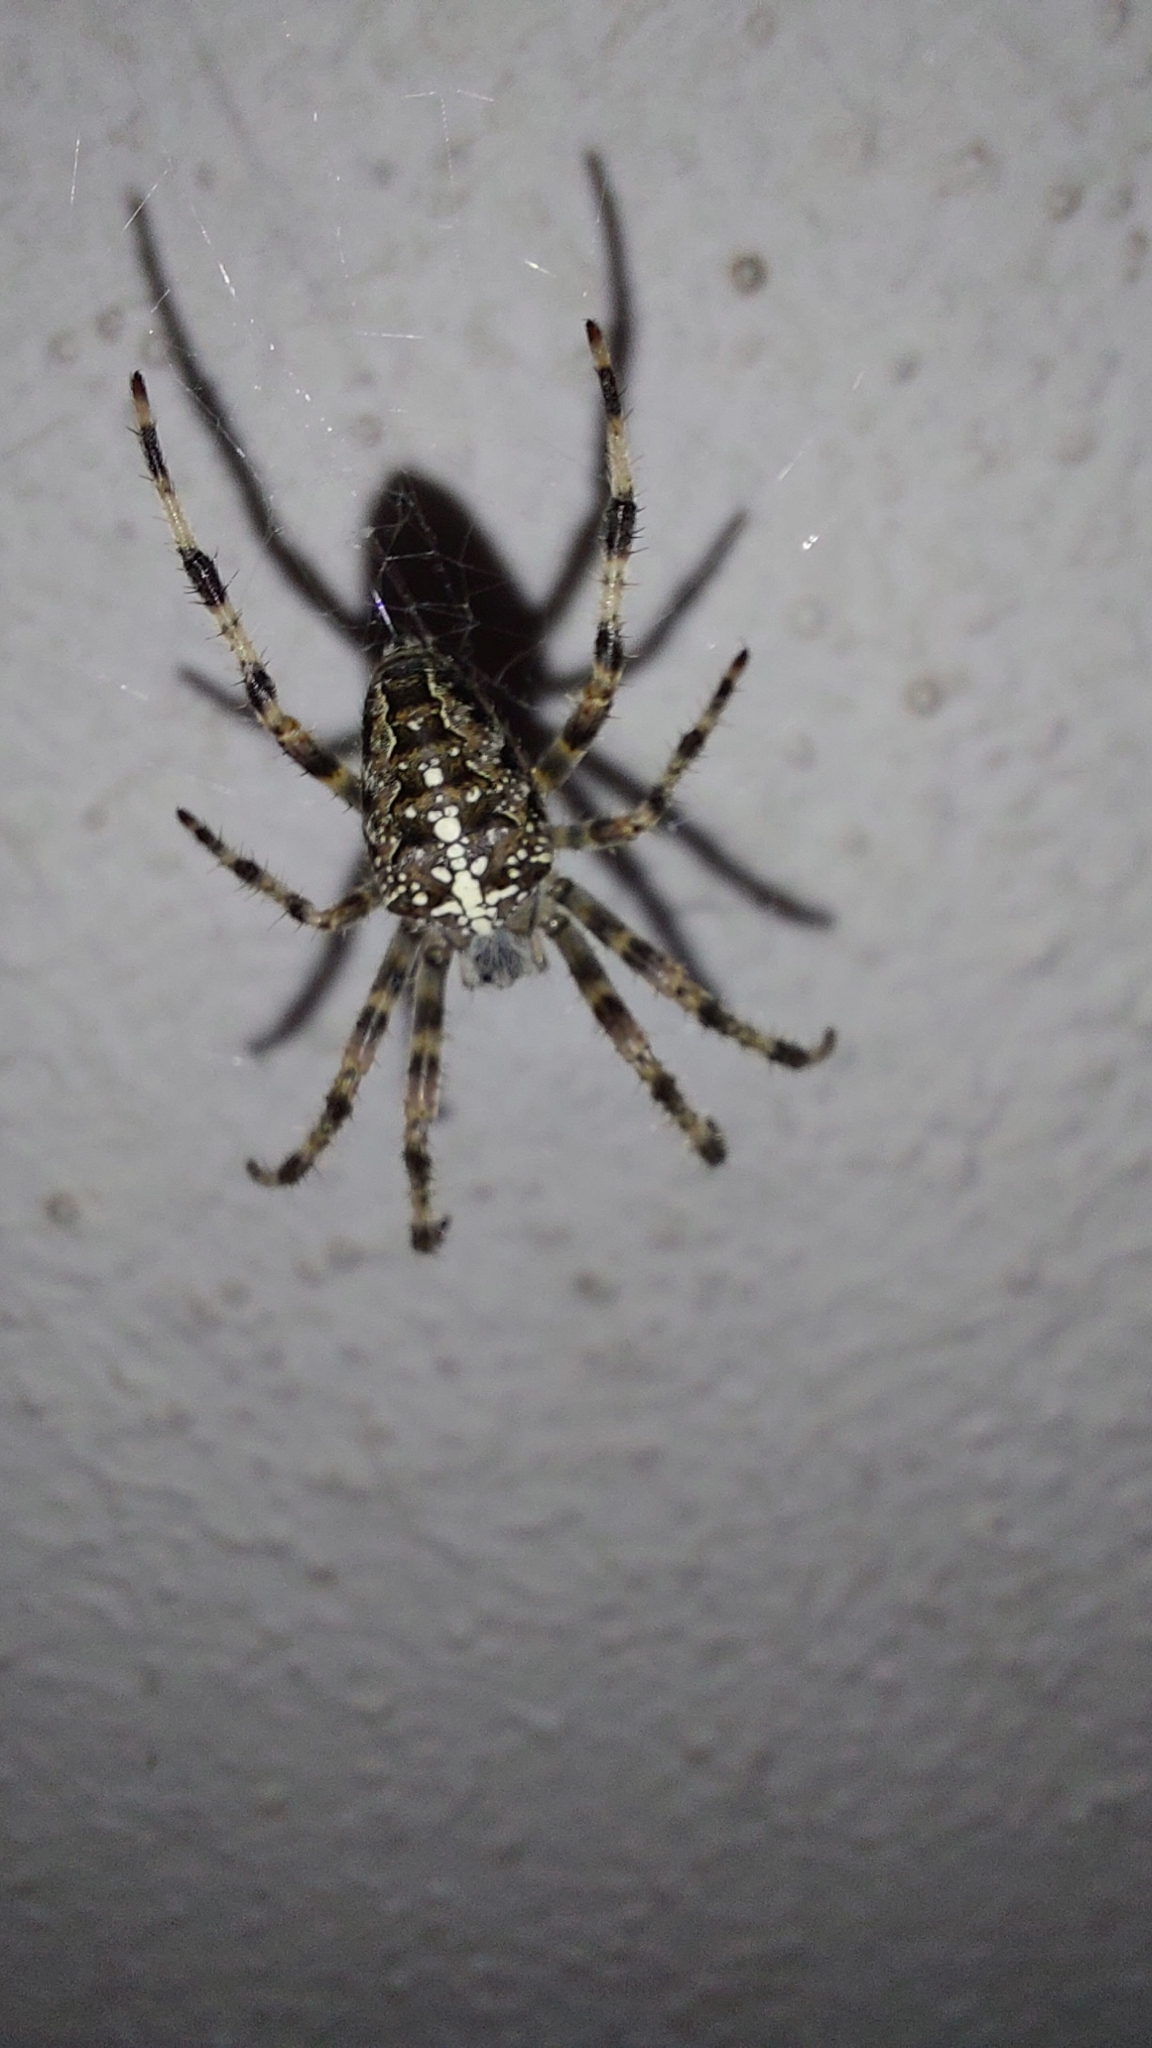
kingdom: Animalia
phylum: Arthropoda
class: Arachnida
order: Araneae
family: Araneidae
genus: Araneus
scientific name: Araneus diadematus
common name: Cross orbweaver
